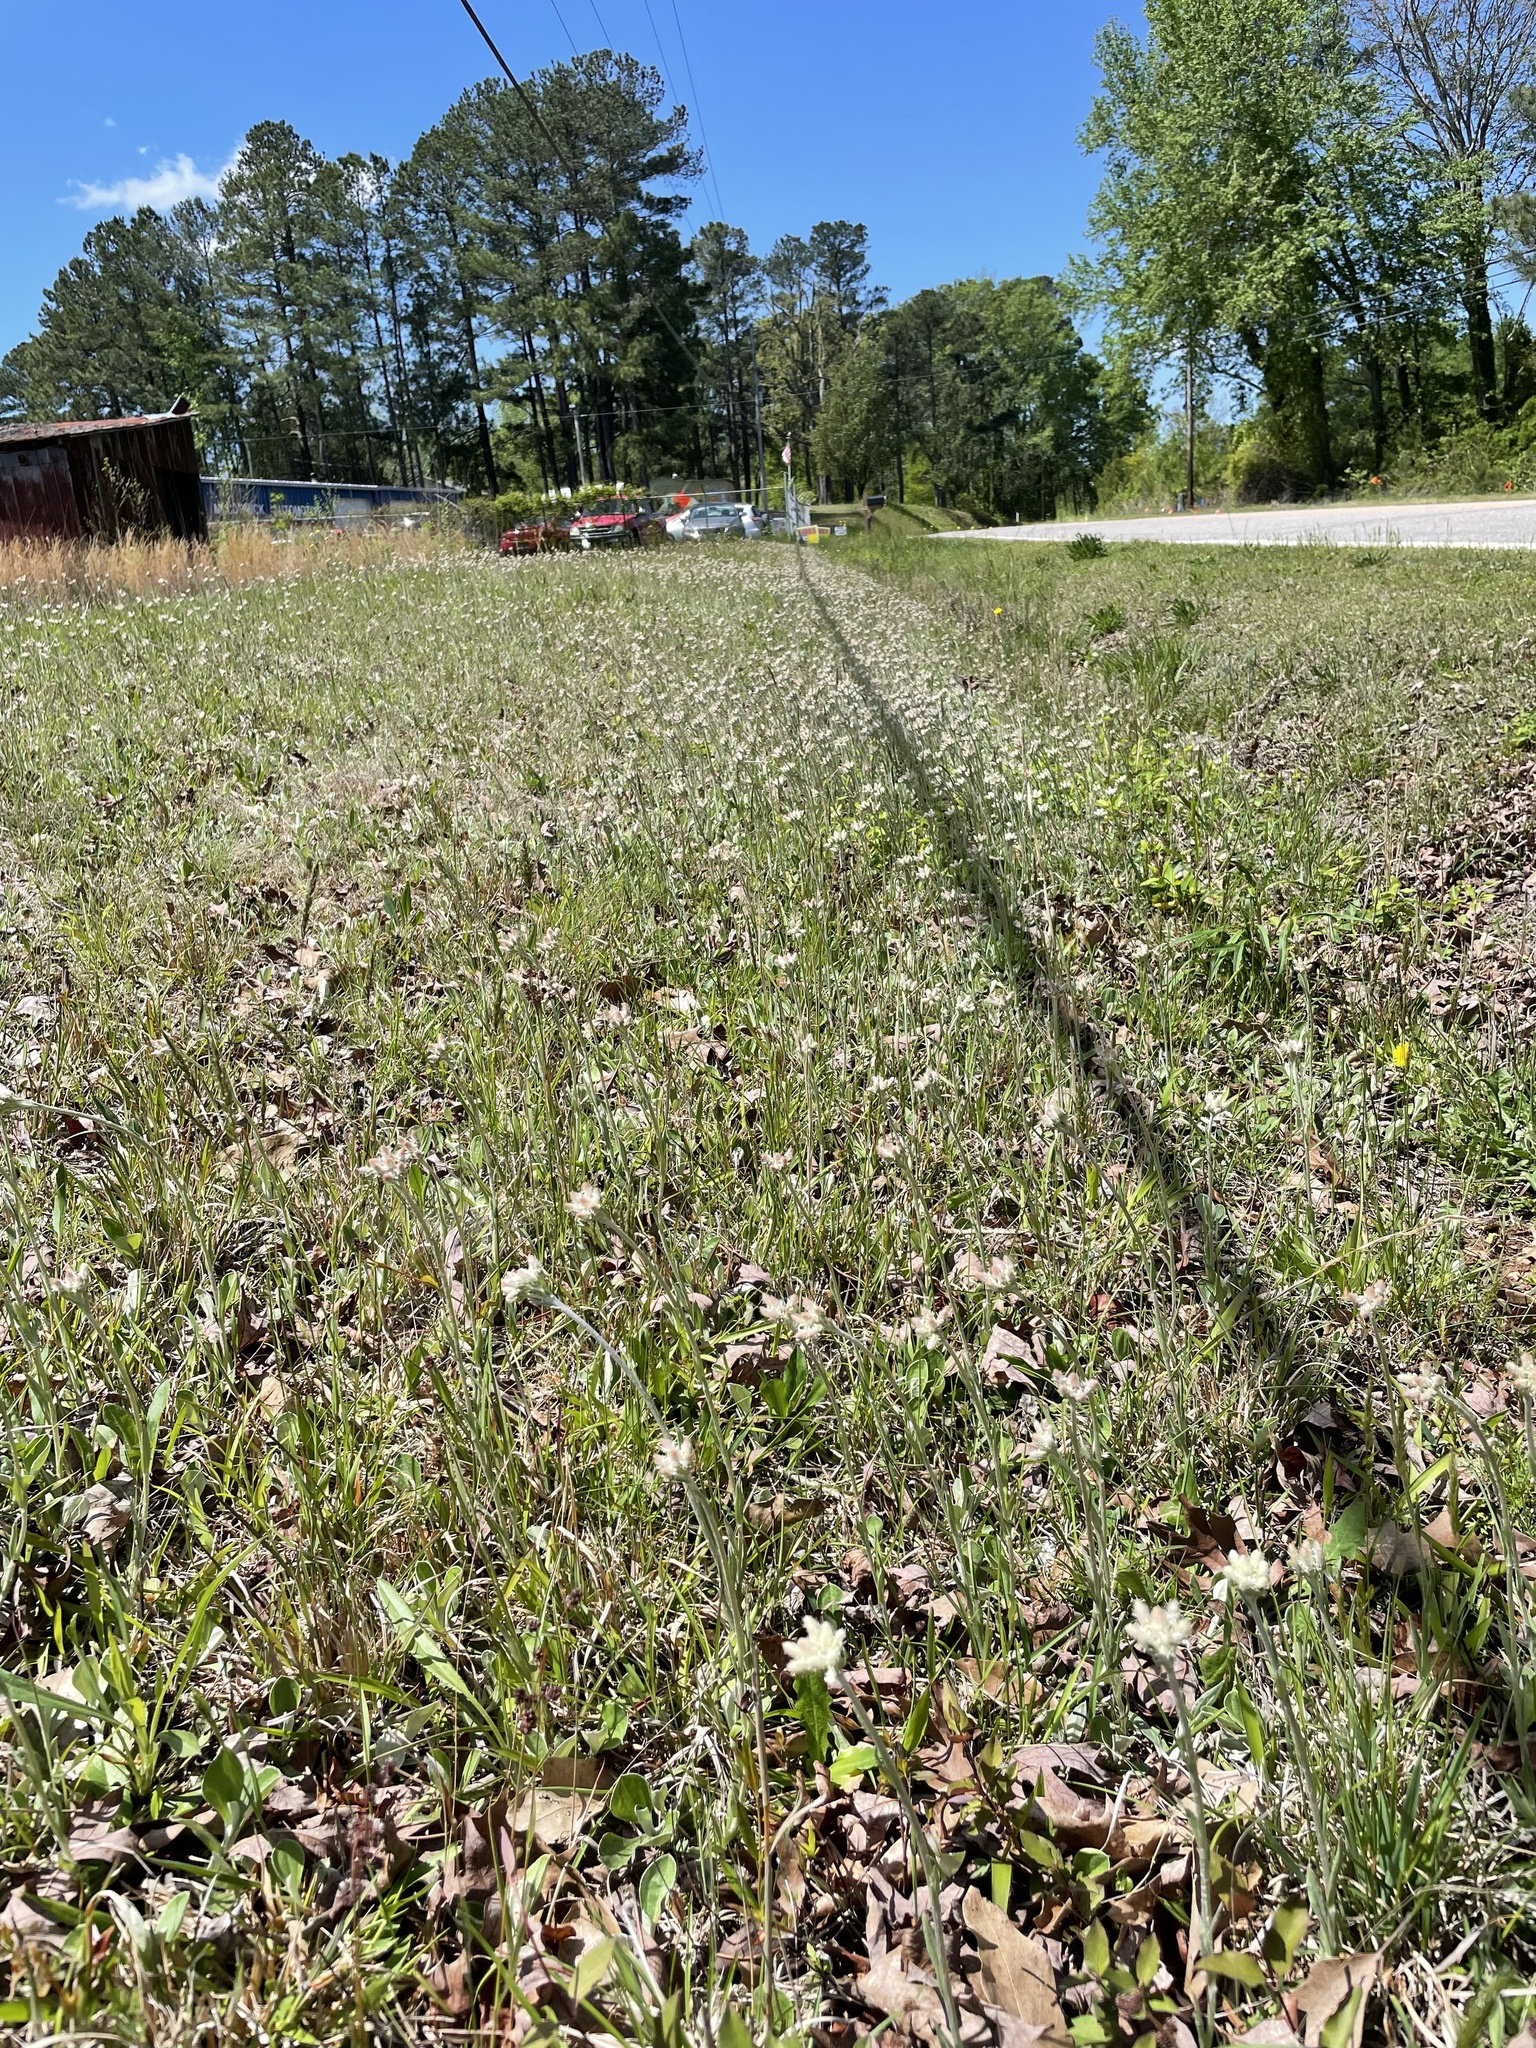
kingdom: Plantae
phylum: Tracheophyta
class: Magnoliopsida
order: Asterales
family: Asteraceae
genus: Antennaria
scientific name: Antennaria parlinii
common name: Parlin's pussytoes
